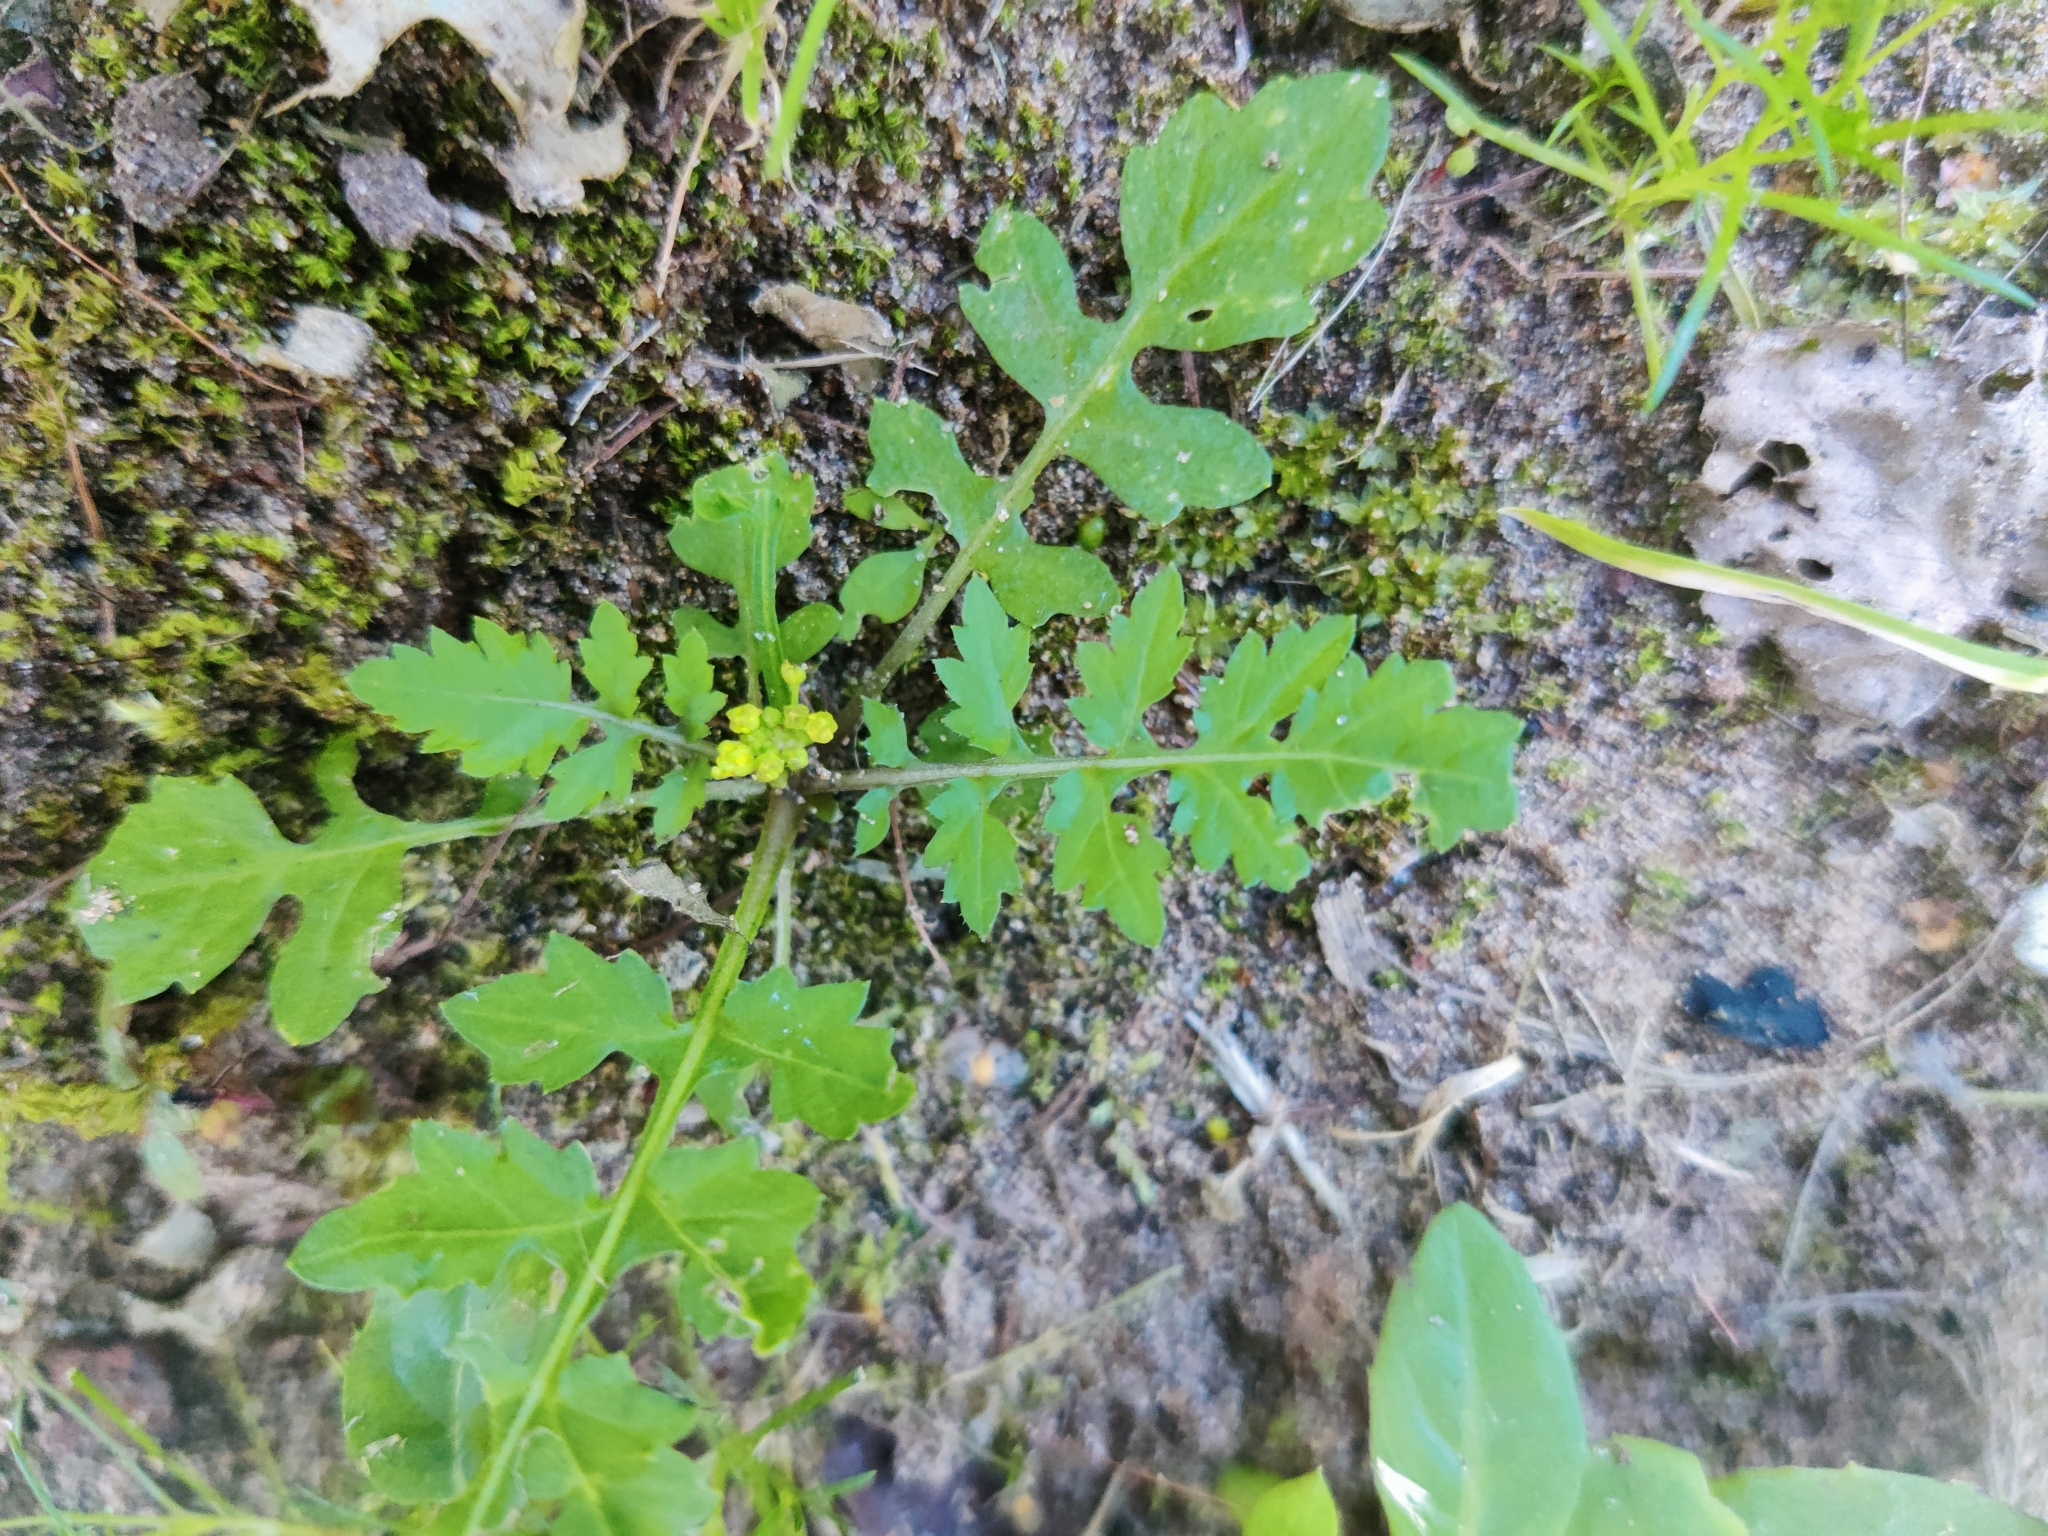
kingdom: Plantae
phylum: Tracheophyta
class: Magnoliopsida
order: Brassicales
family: Brassicaceae
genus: Rorippa
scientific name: Rorippa palustris
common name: Marsh yellow-cress
